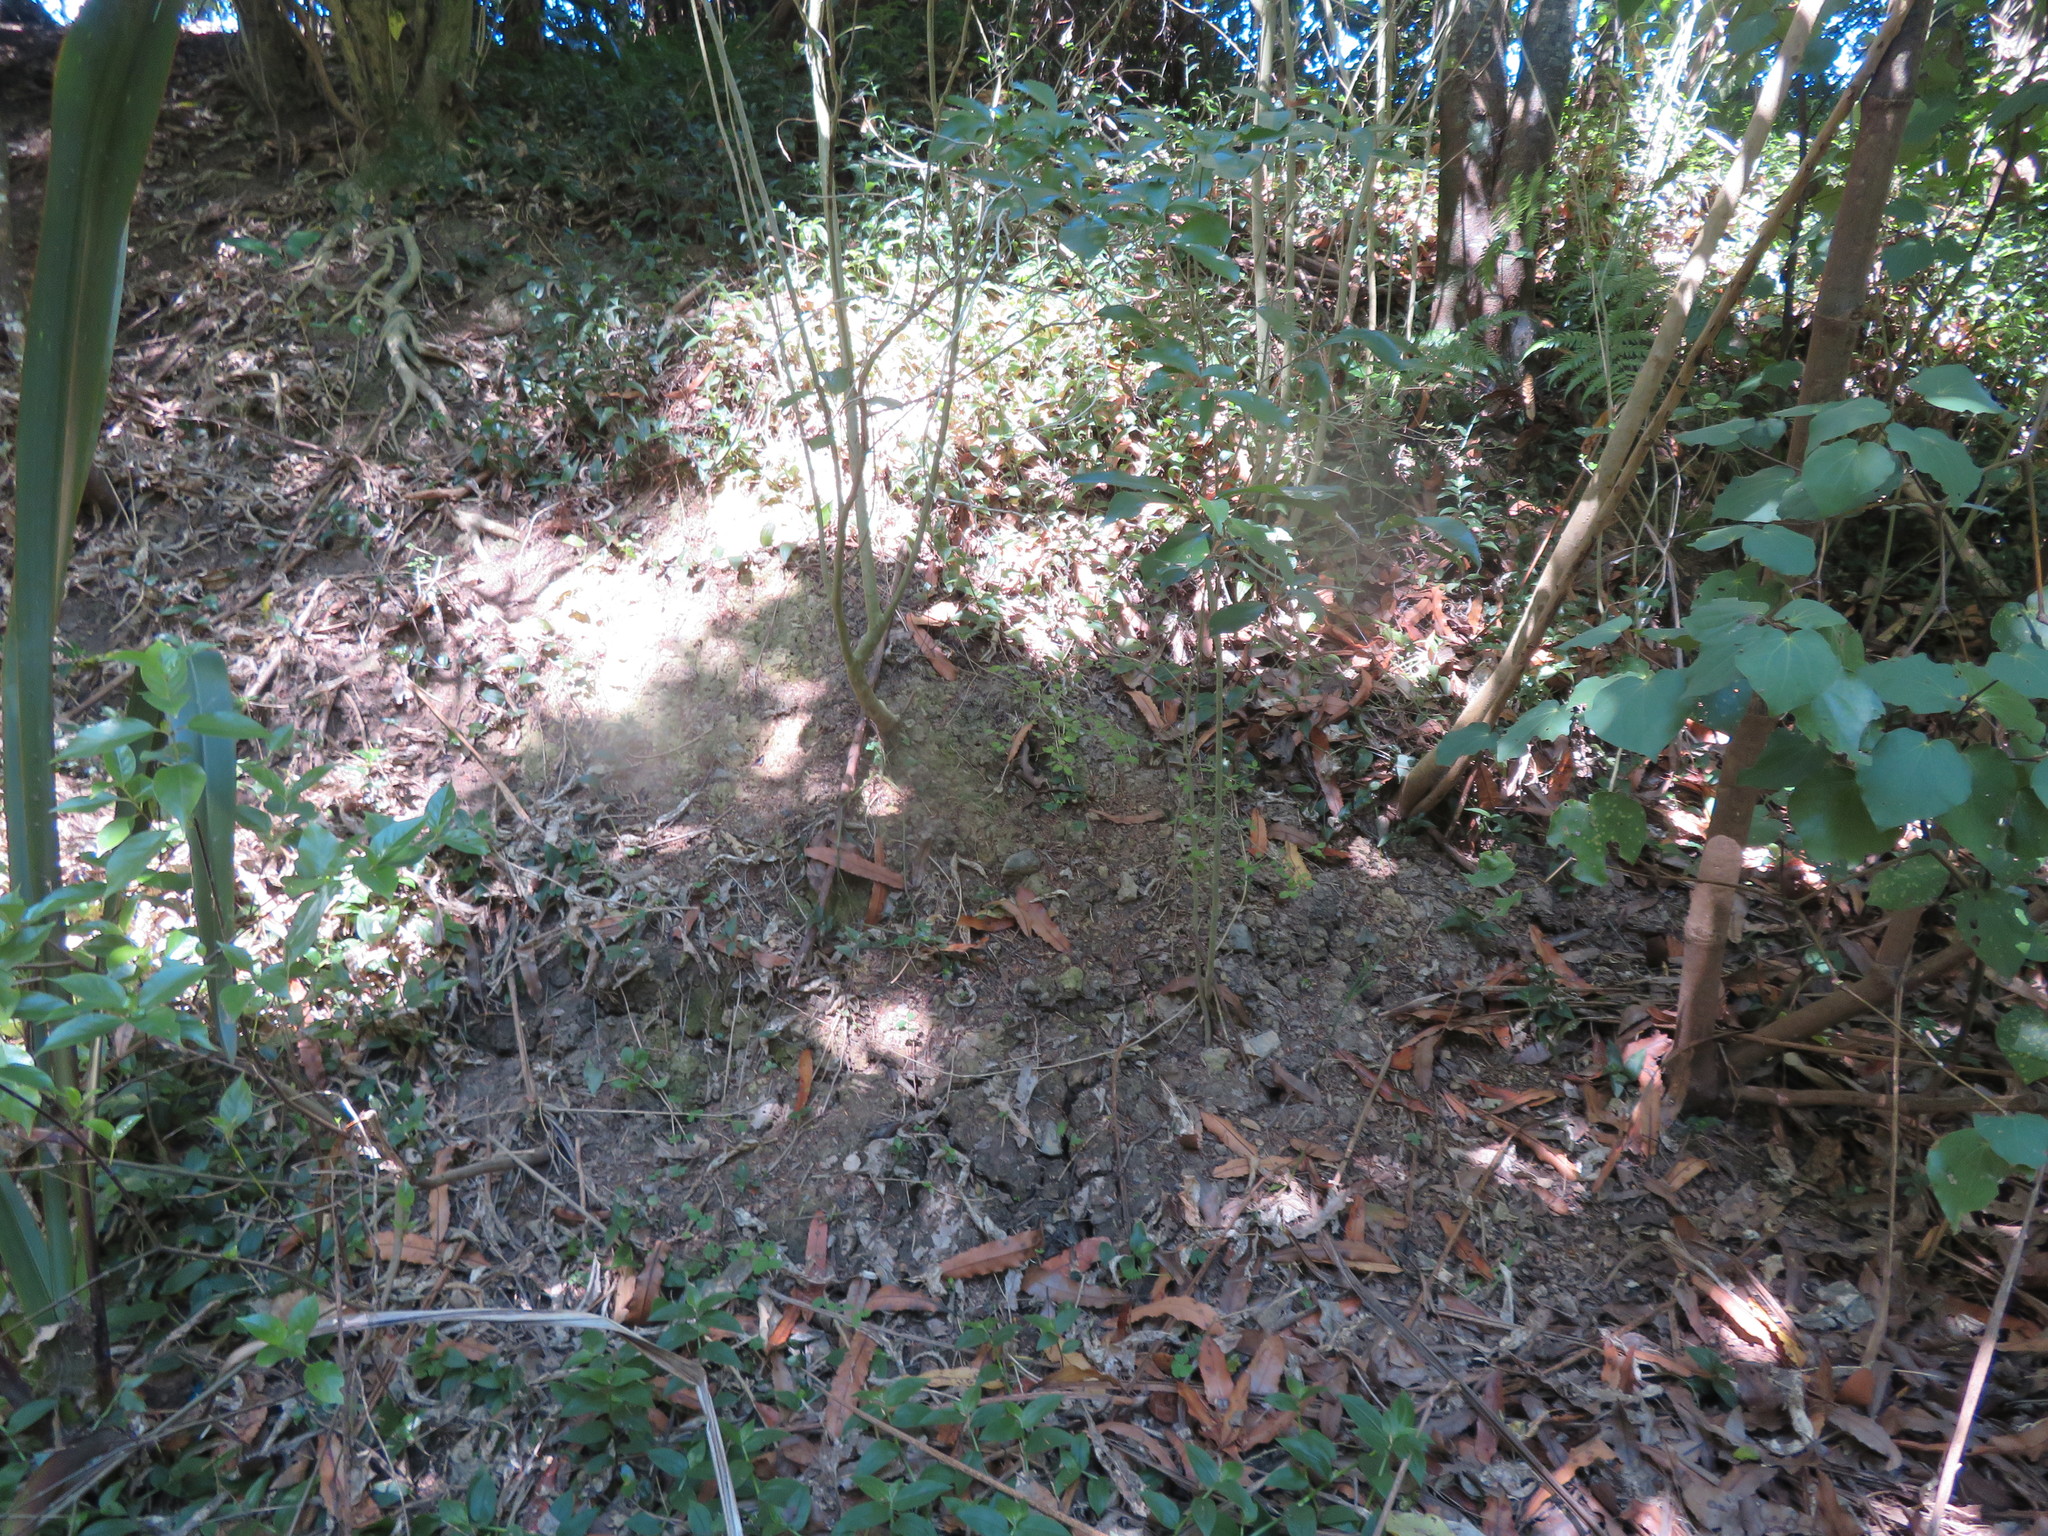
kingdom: Plantae
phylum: Tracheophyta
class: Liliopsida
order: Commelinales
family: Commelinaceae
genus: Tradescantia
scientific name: Tradescantia fluminensis
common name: Wandering-jew
